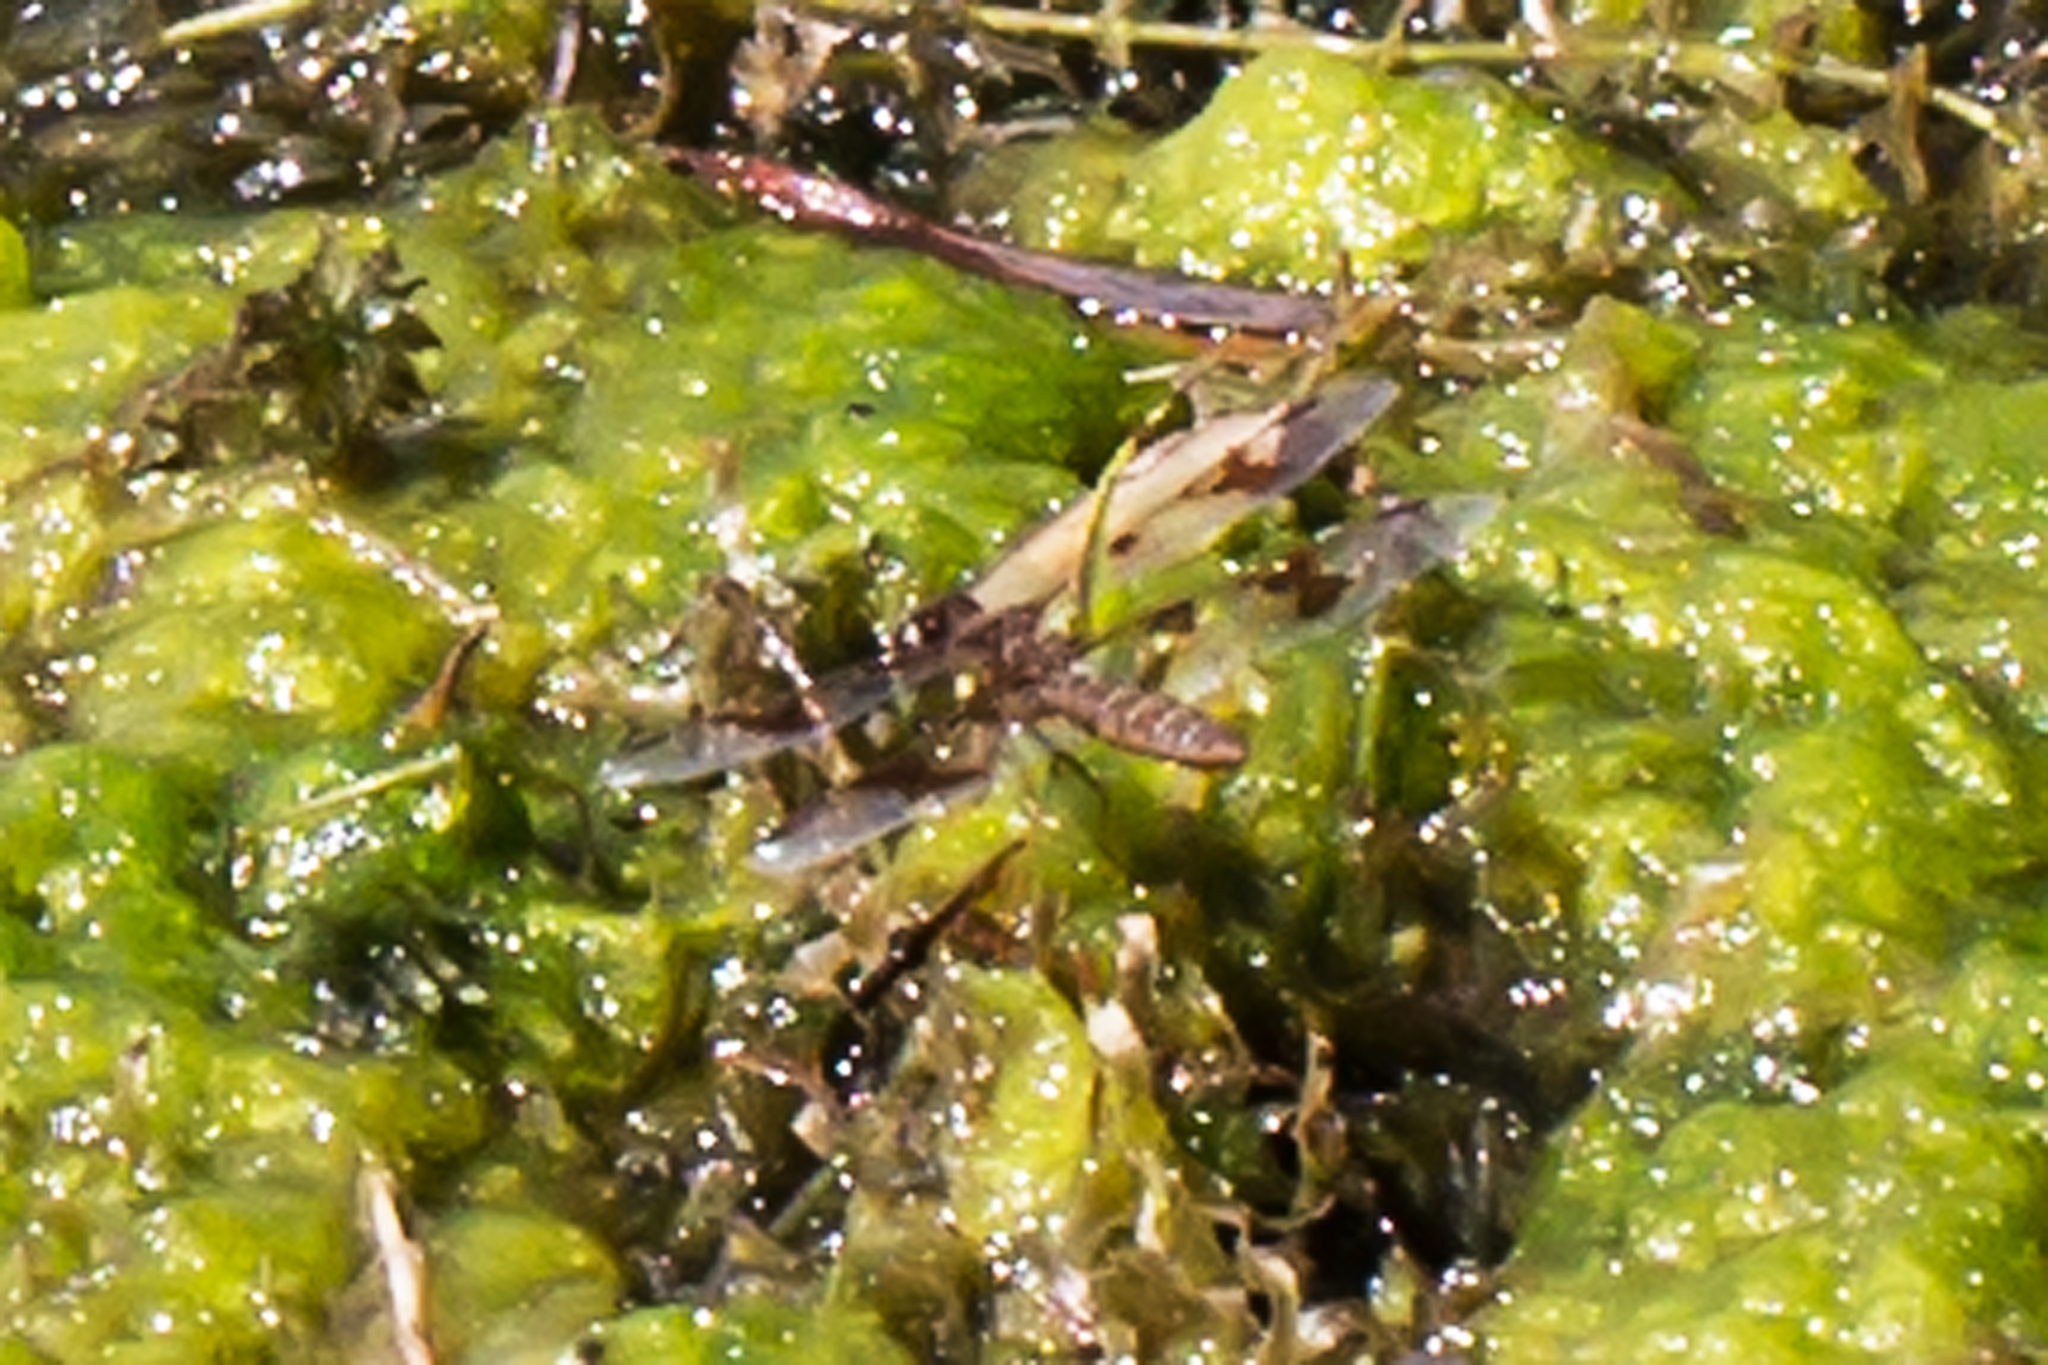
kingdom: Animalia
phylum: Arthropoda
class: Insecta
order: Odonata
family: Libellulidae
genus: Perithemis
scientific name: Perithemis tenera
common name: Eastern amberwing
